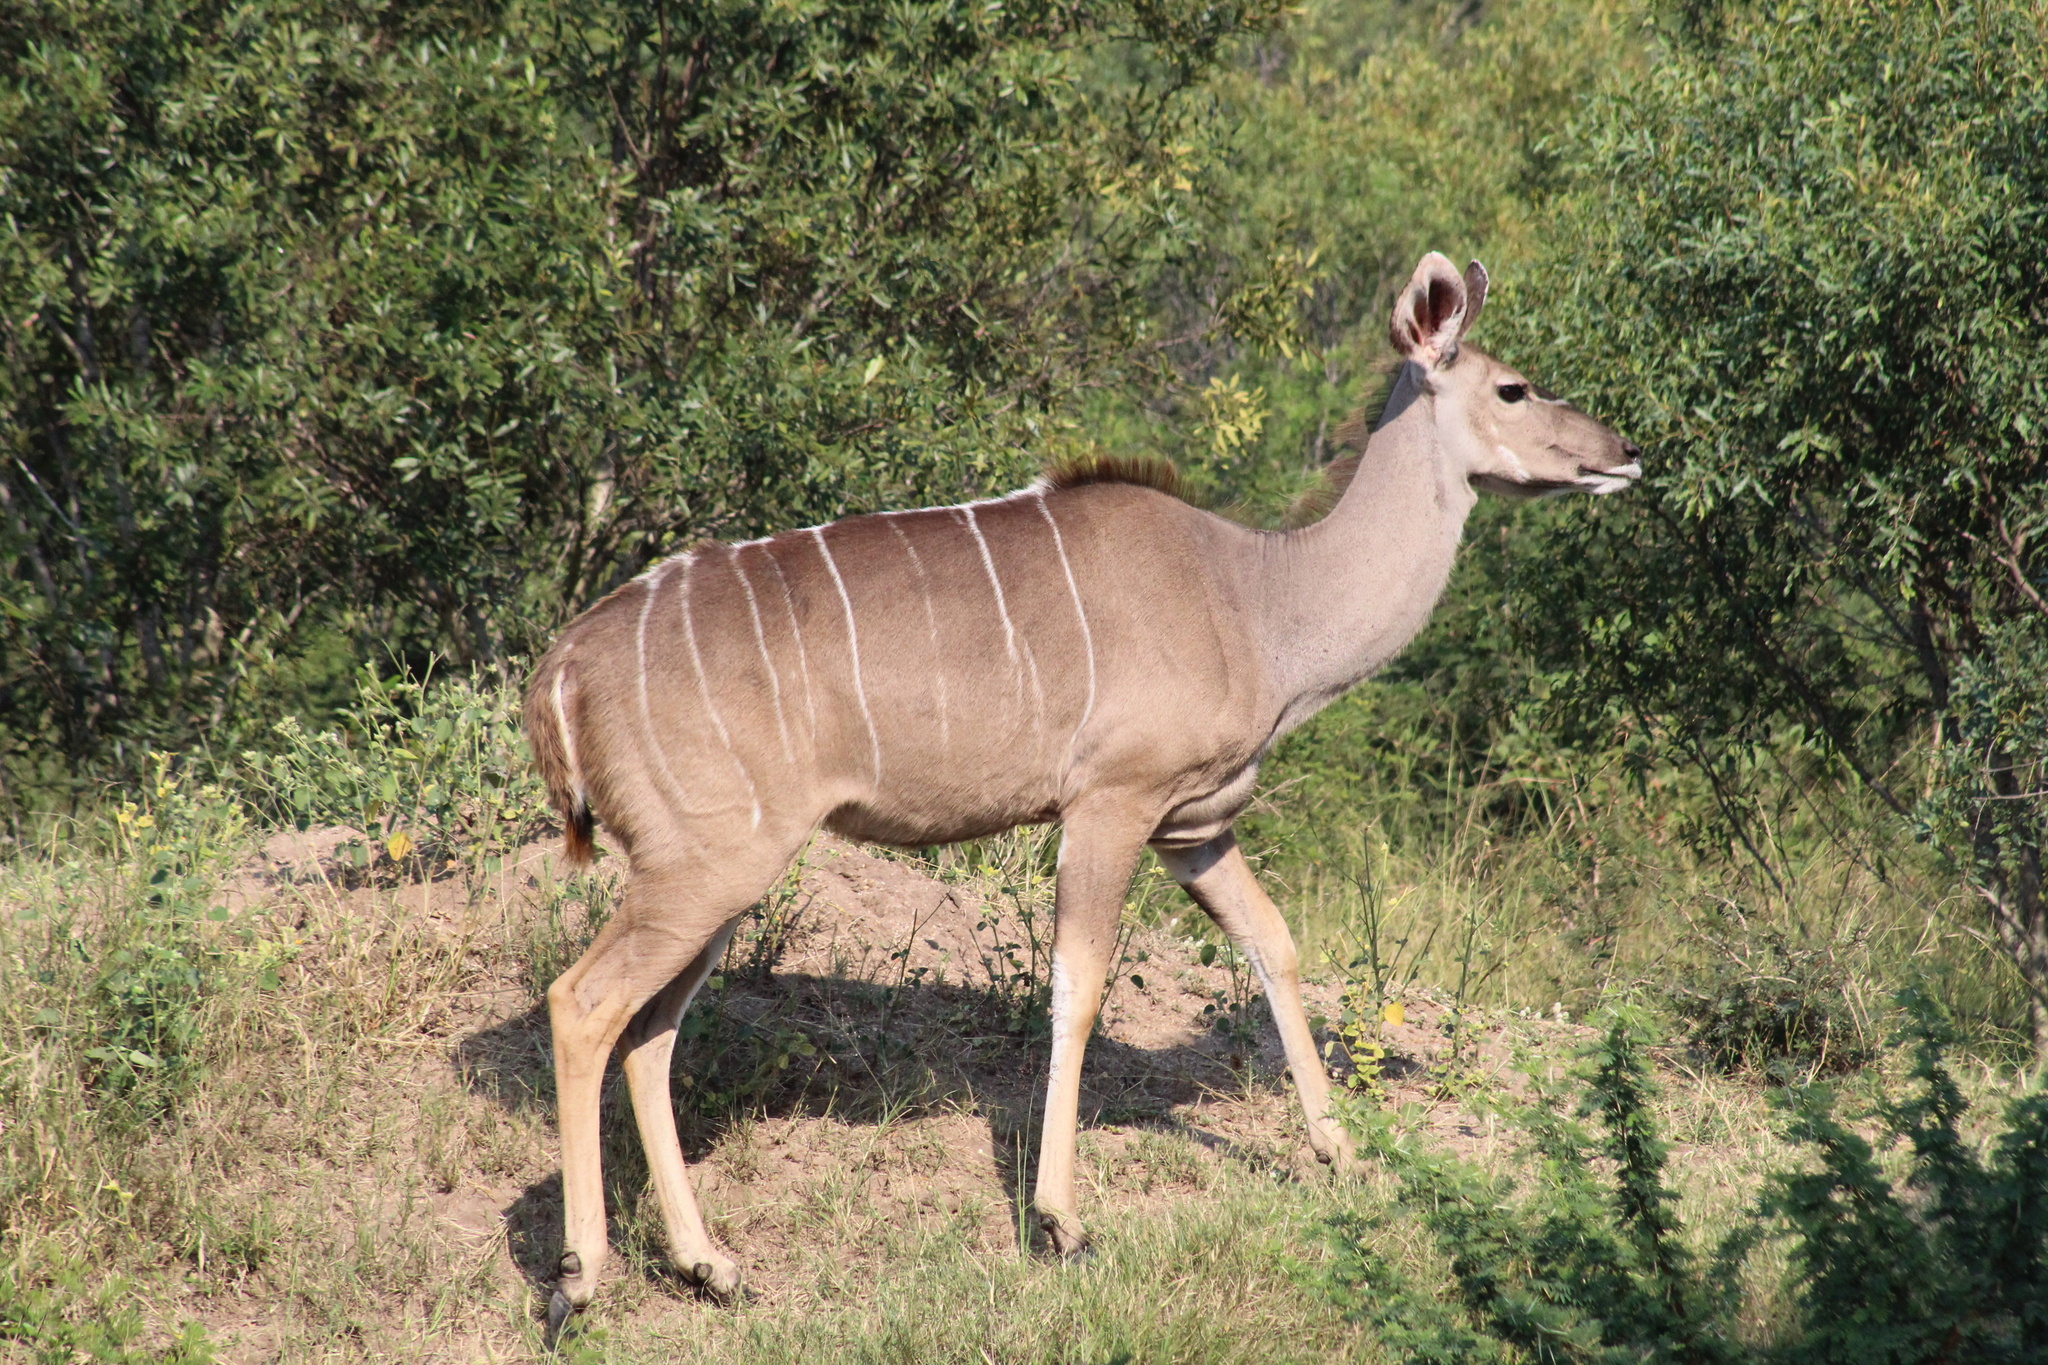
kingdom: Animalia
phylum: Chordata
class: Mammalia
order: Artiodactyla
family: Bovidae
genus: Tragelaphus
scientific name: Tragelaphus strepsiceros
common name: Greater kudu
